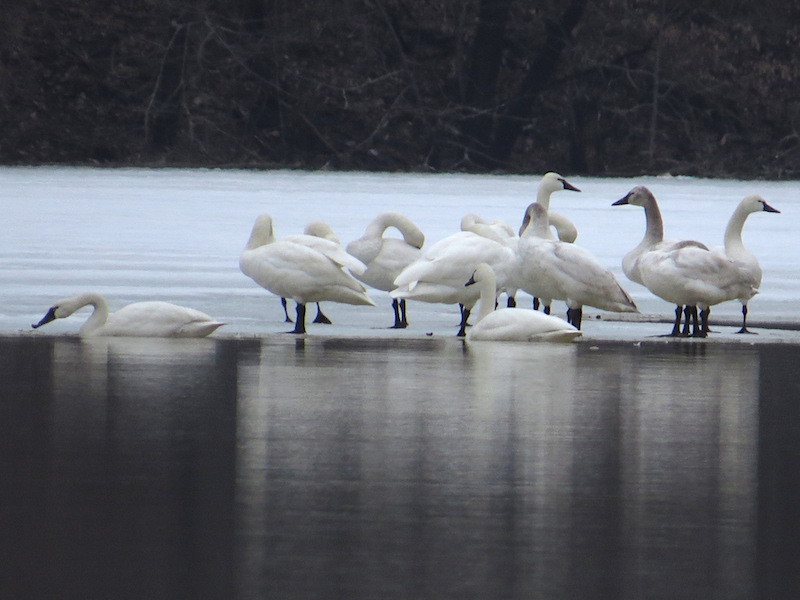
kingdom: Animalia
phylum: Chordata
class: Aves
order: Anseriformes
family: Anatidae
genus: Cygnus
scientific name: Cygnus columbianus
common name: Tundra swan
